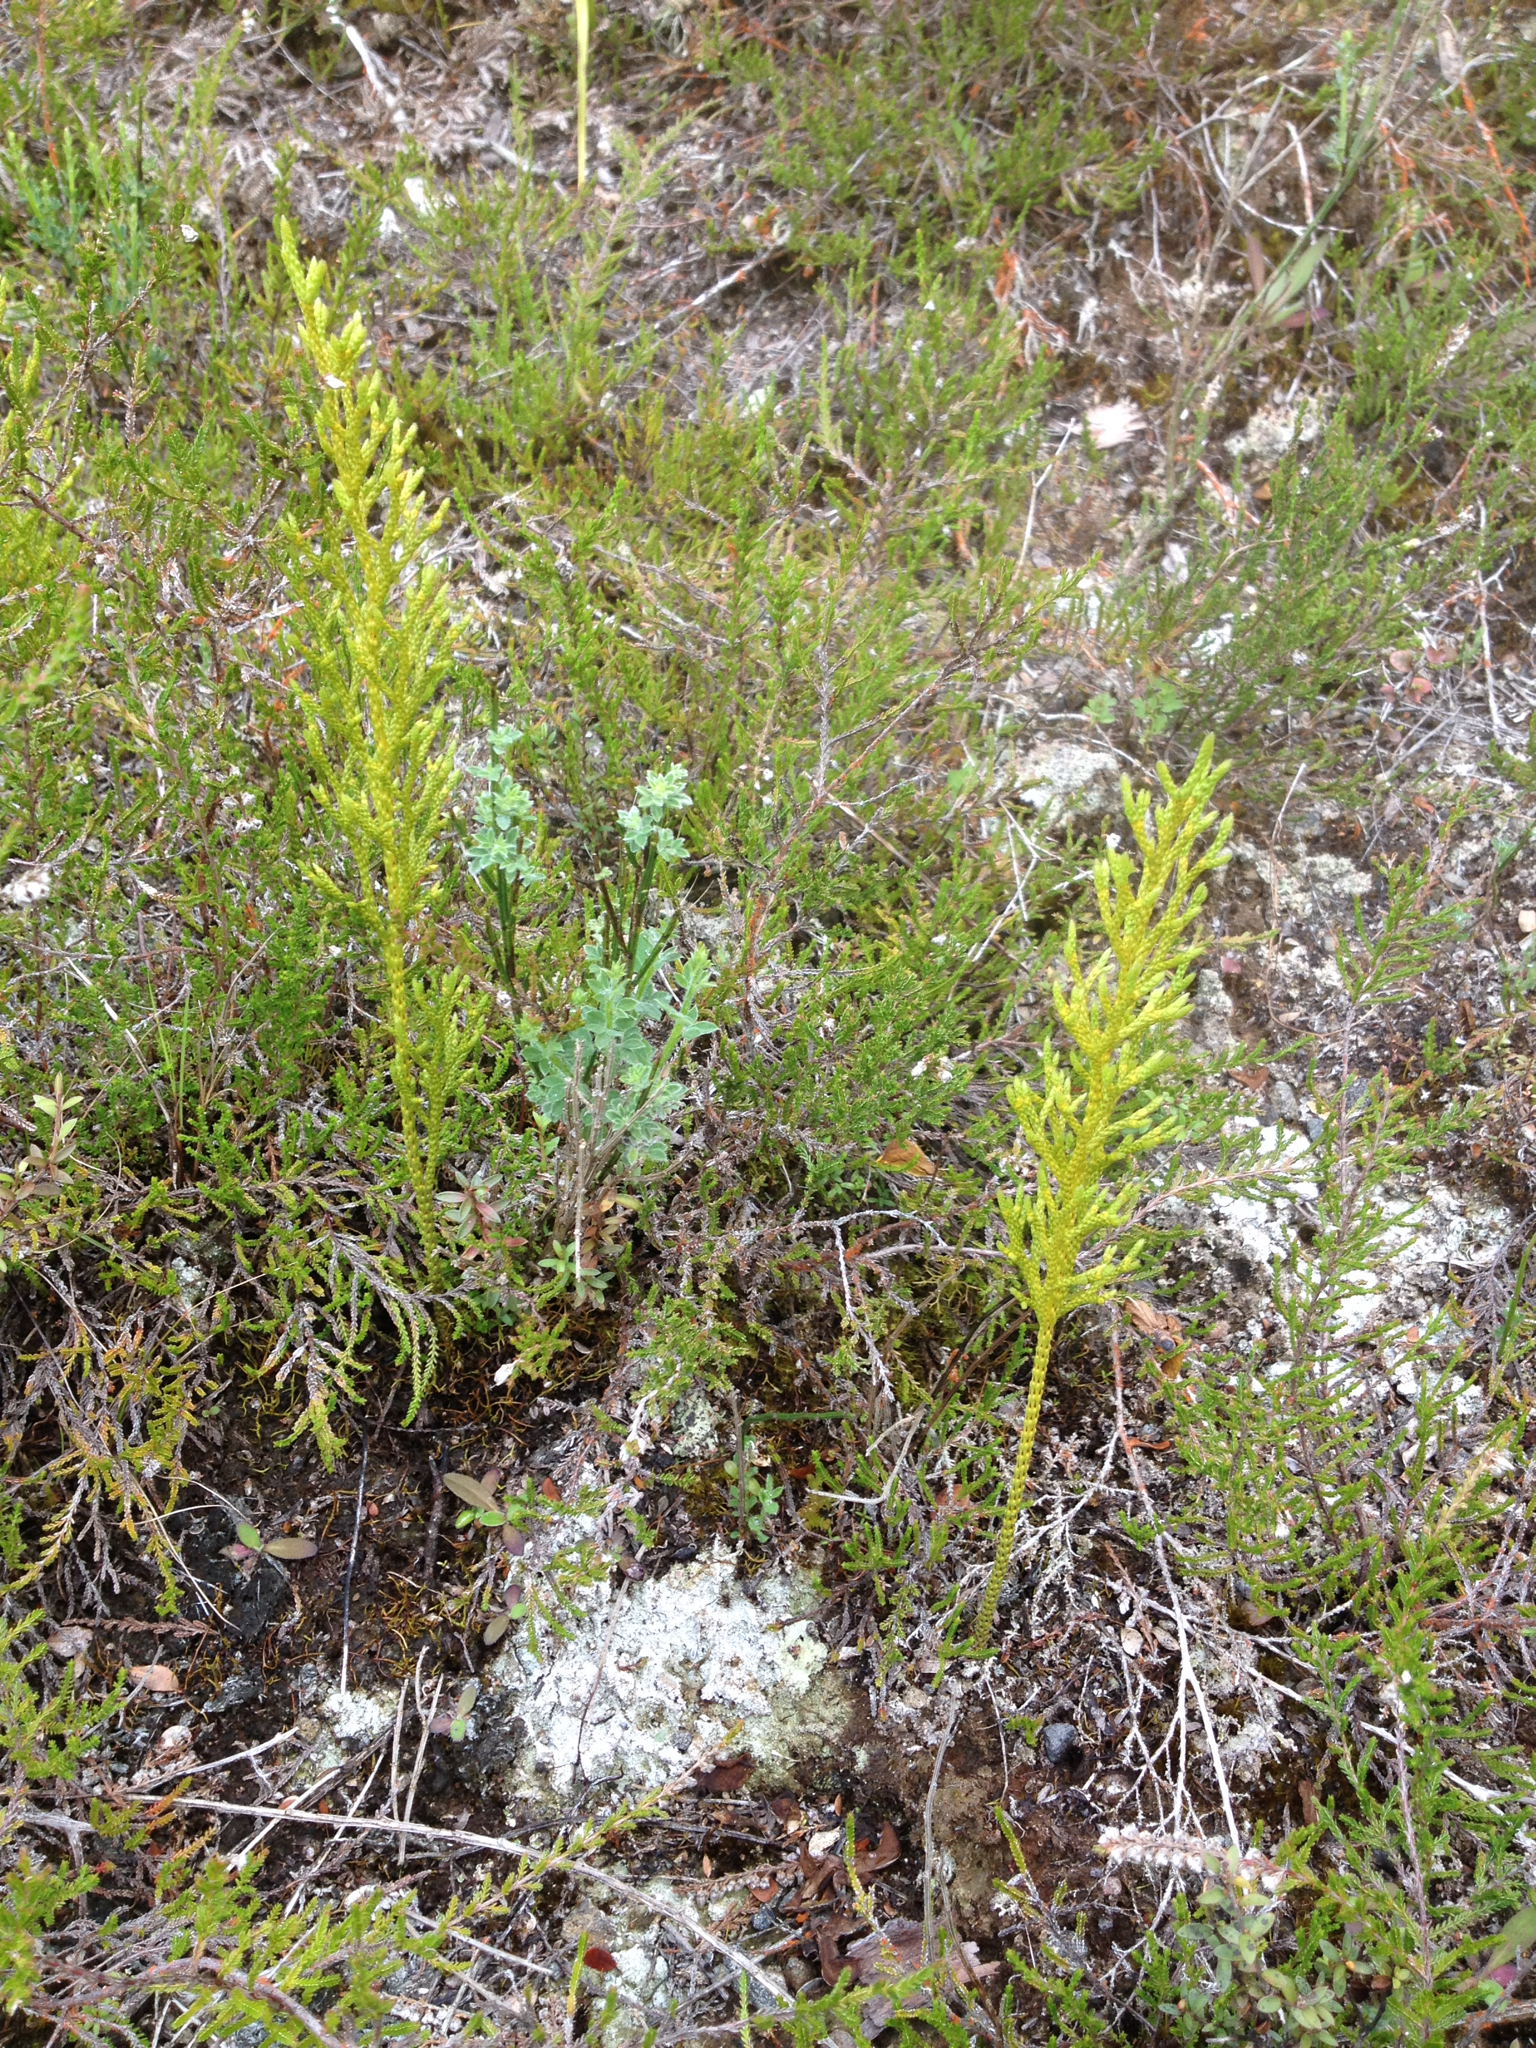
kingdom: Plantae
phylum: Tracheophyta
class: Lycopodiopsida
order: Lycopodiales
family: Lycopodiaceae
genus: Pseudolycopodium
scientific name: Pseudolycopodium densum
